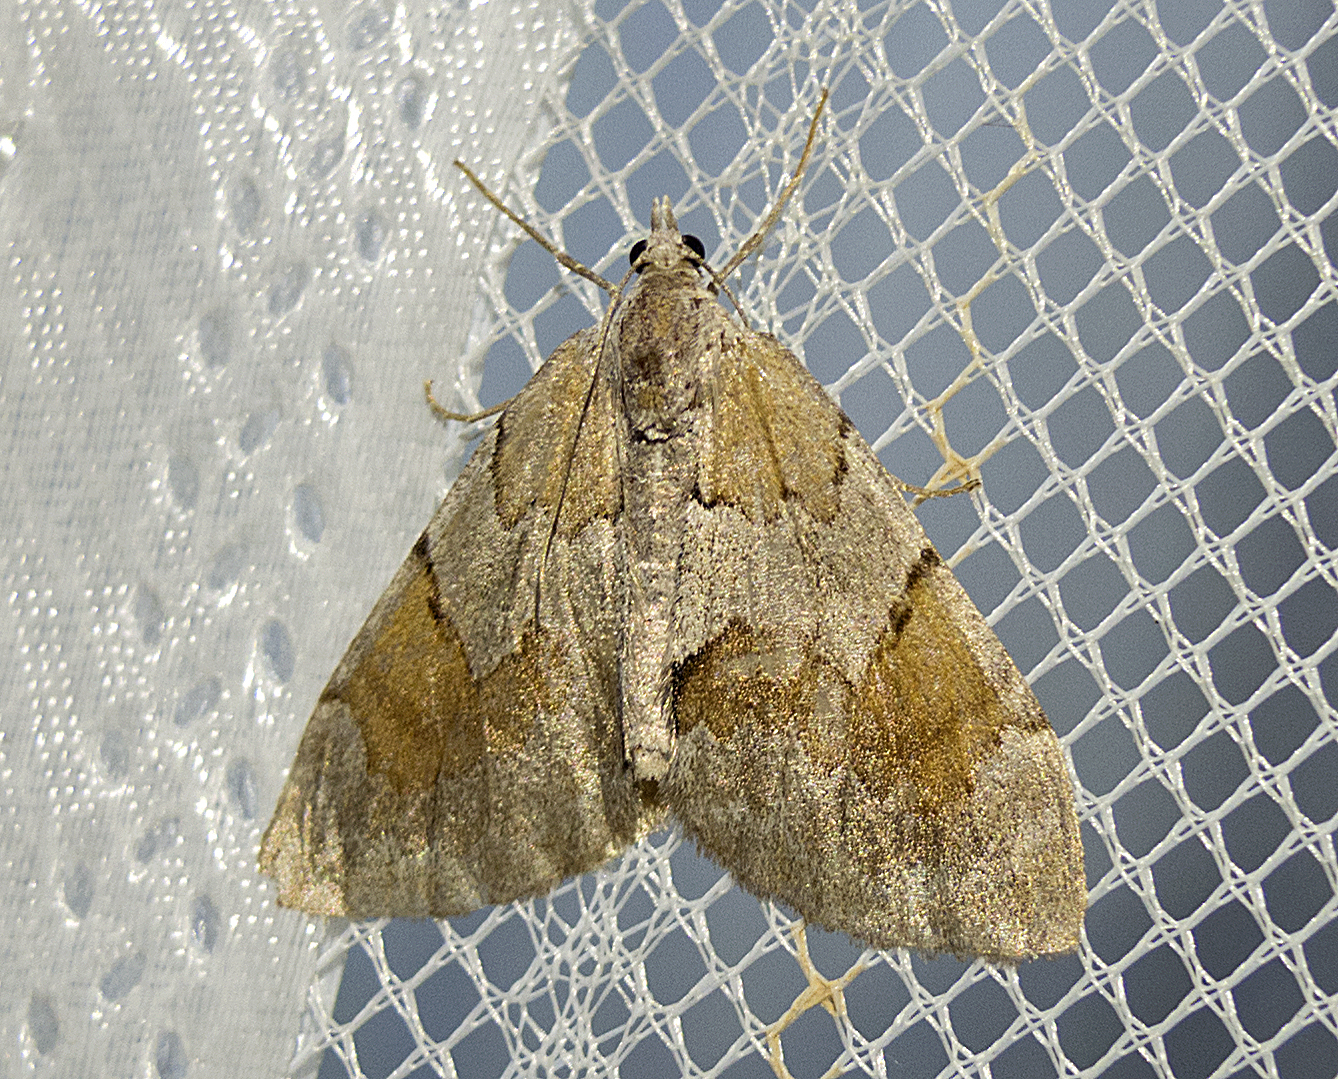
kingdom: Animalia
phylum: Arthropoda
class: Insecta
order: Lepidoptera
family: Geometridae
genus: Pennithera
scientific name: Pennithera firmata
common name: Pine carpet
